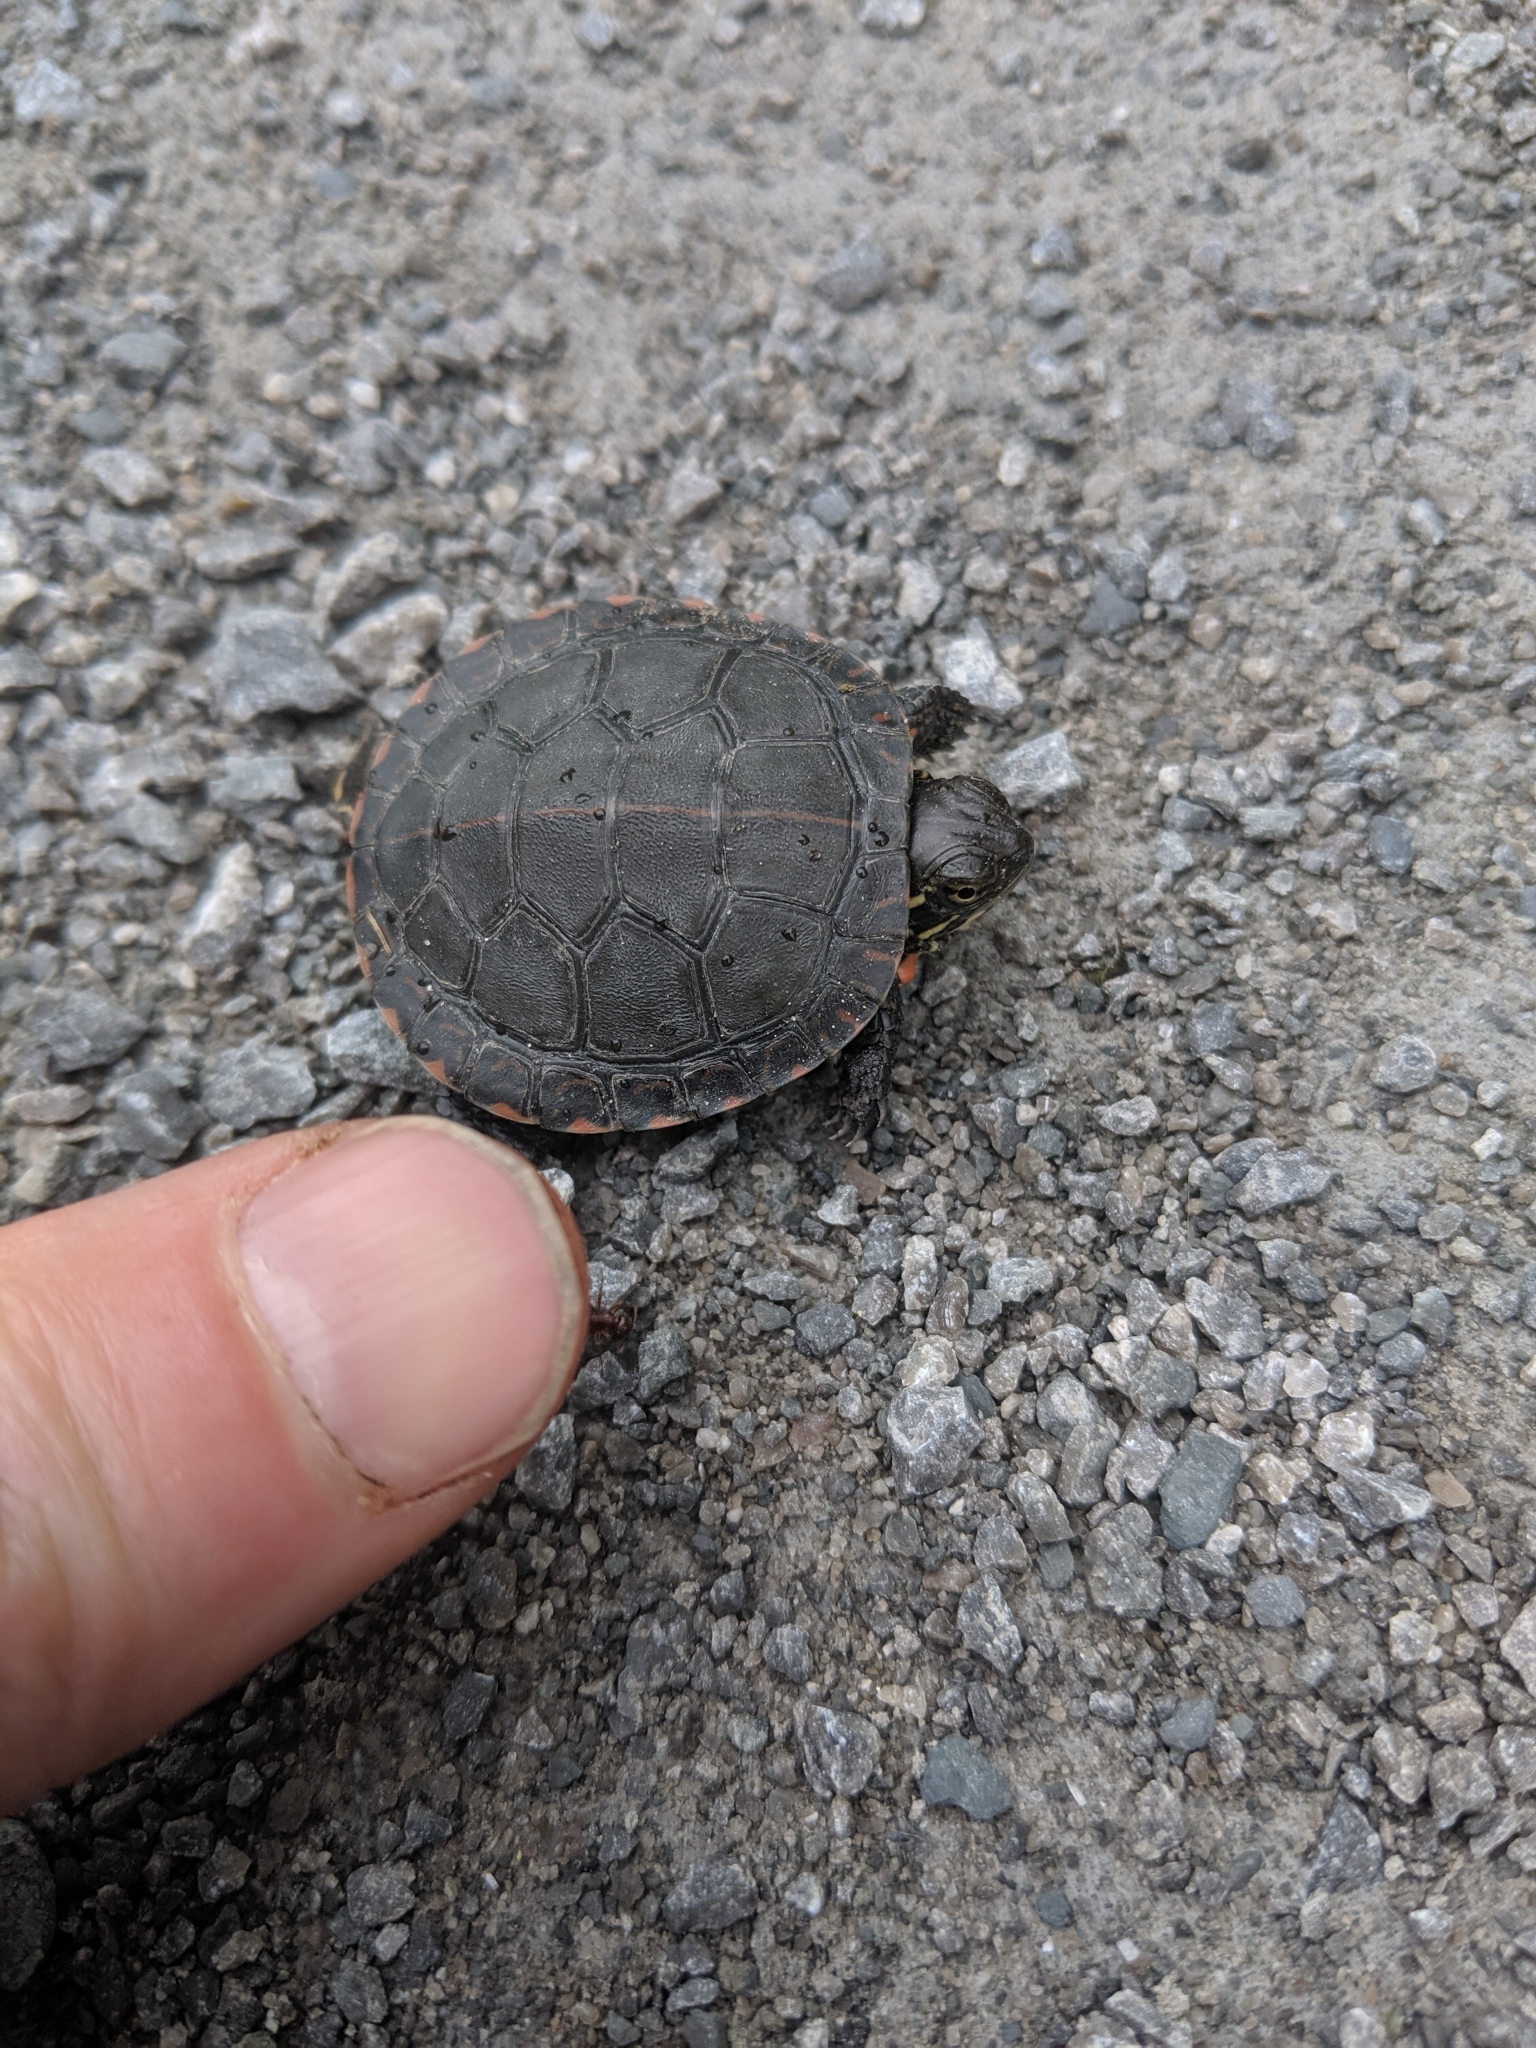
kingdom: Animalia
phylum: Chordata
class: Testudines
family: Emydidae
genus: Chrysemys
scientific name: Chrysemys picta
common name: Painted turtle
